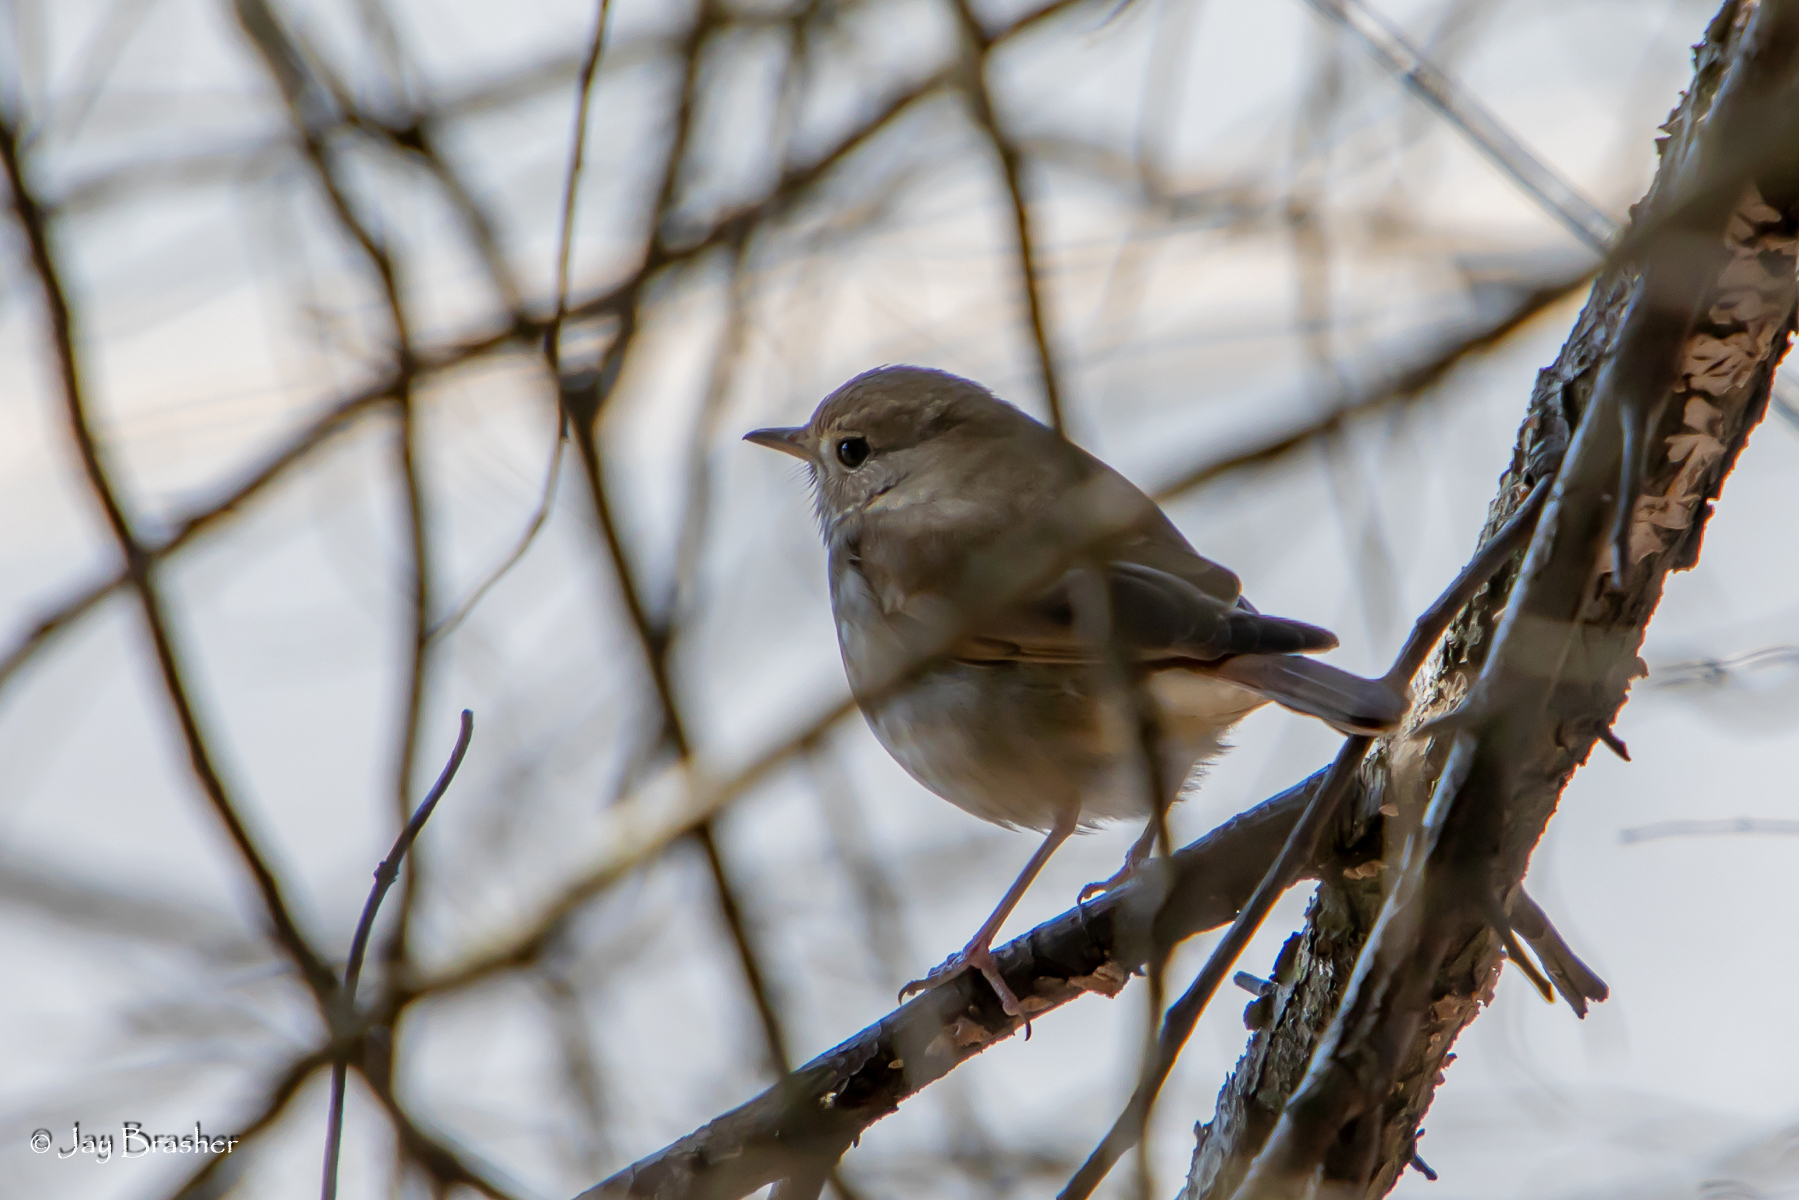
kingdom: Animalia
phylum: Chordata
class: Aves
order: Passeriformes
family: Turdidae
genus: Catharus
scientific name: Catharus guttatus
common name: Hermit thrush
